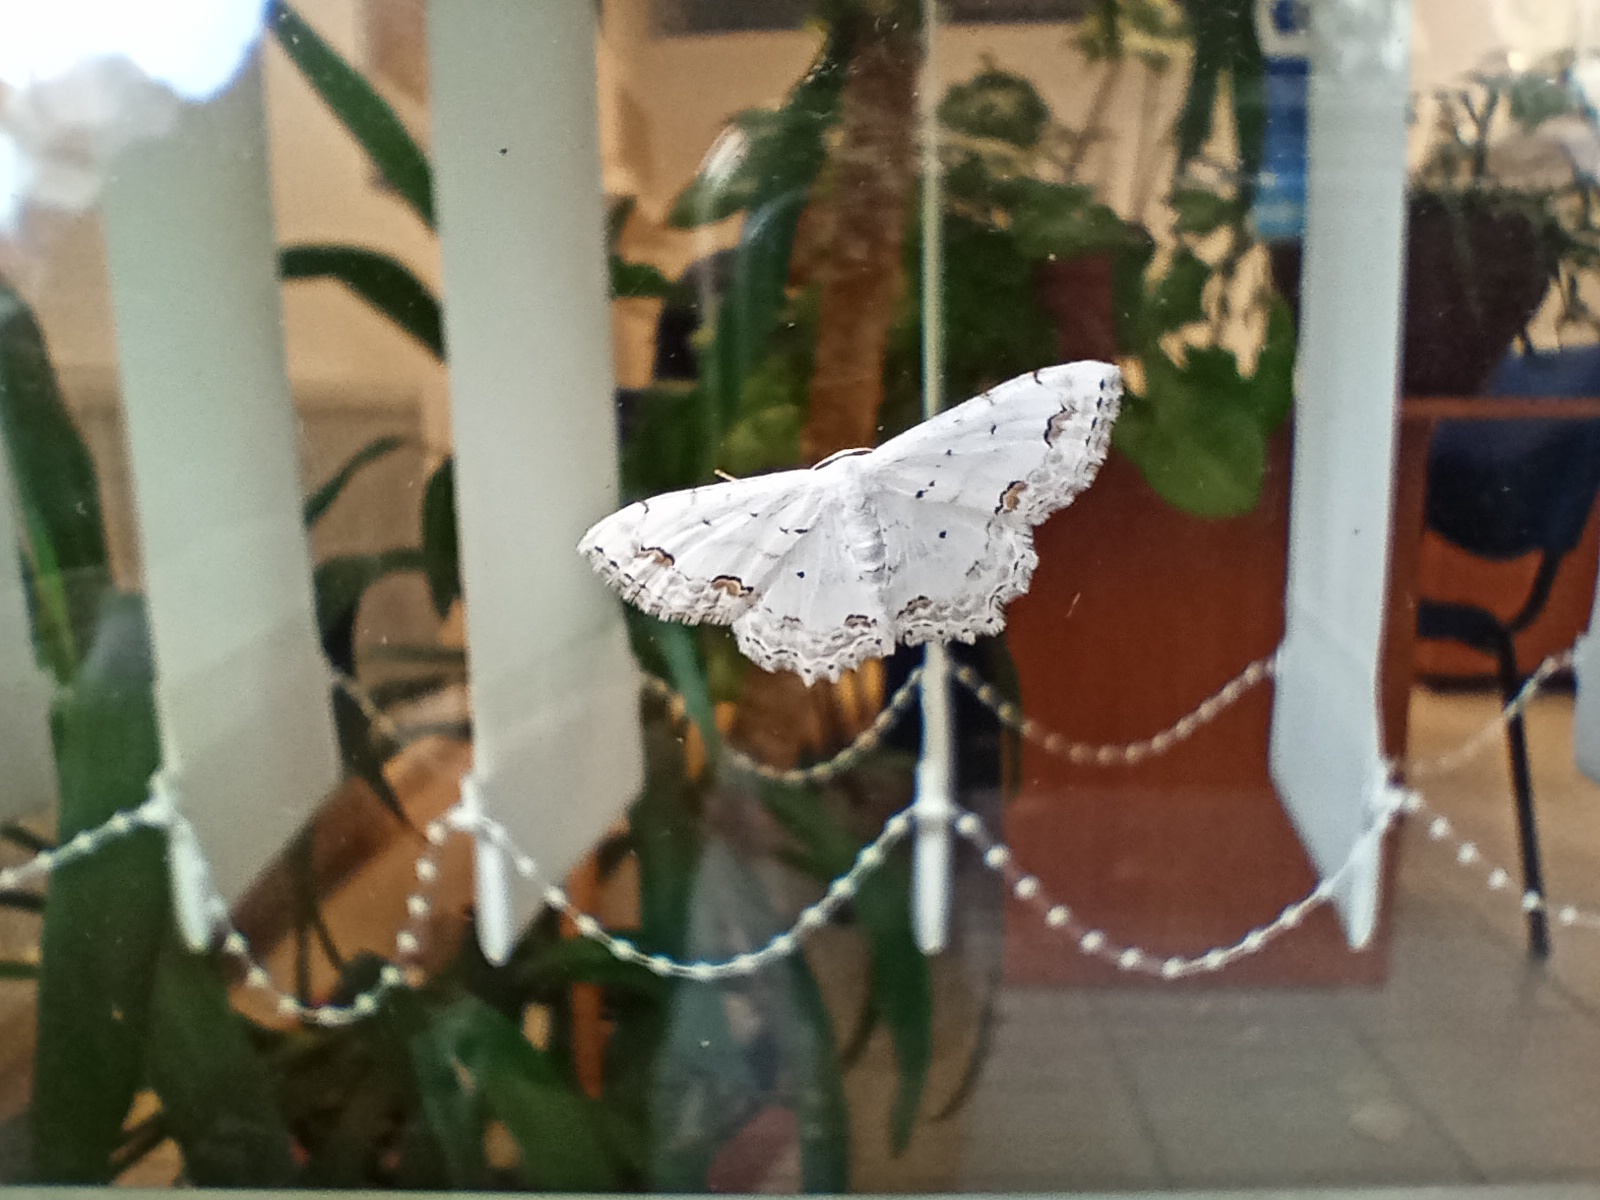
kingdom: Animalia
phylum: Arthropoda
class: Insecta
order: Lepidoptera
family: Geometridae
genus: Scopula
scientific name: Scopula ornata
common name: Lace border
